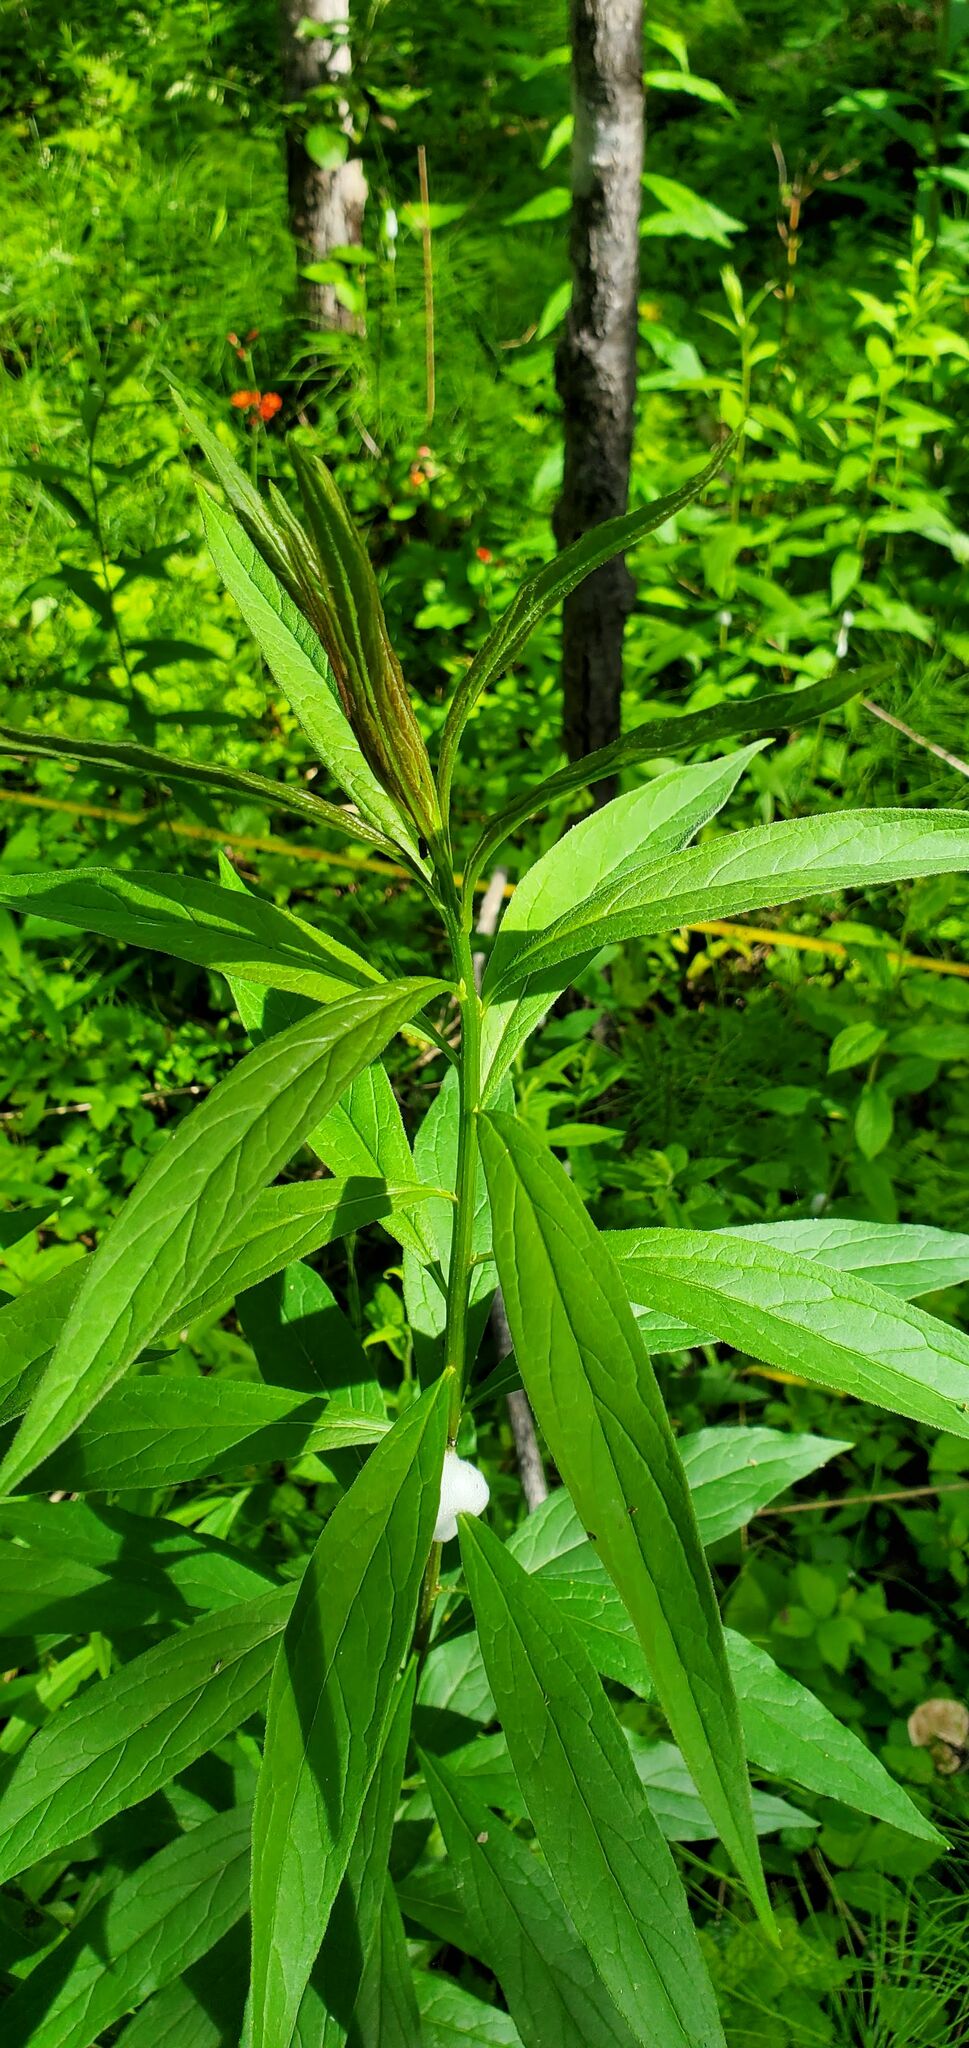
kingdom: Plantae
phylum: Tracheophyta
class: Magnoliopsida
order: Asterales
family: Asteraceae
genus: Doellingeria
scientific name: Doellingeria umbellata
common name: Flat-top white aster
